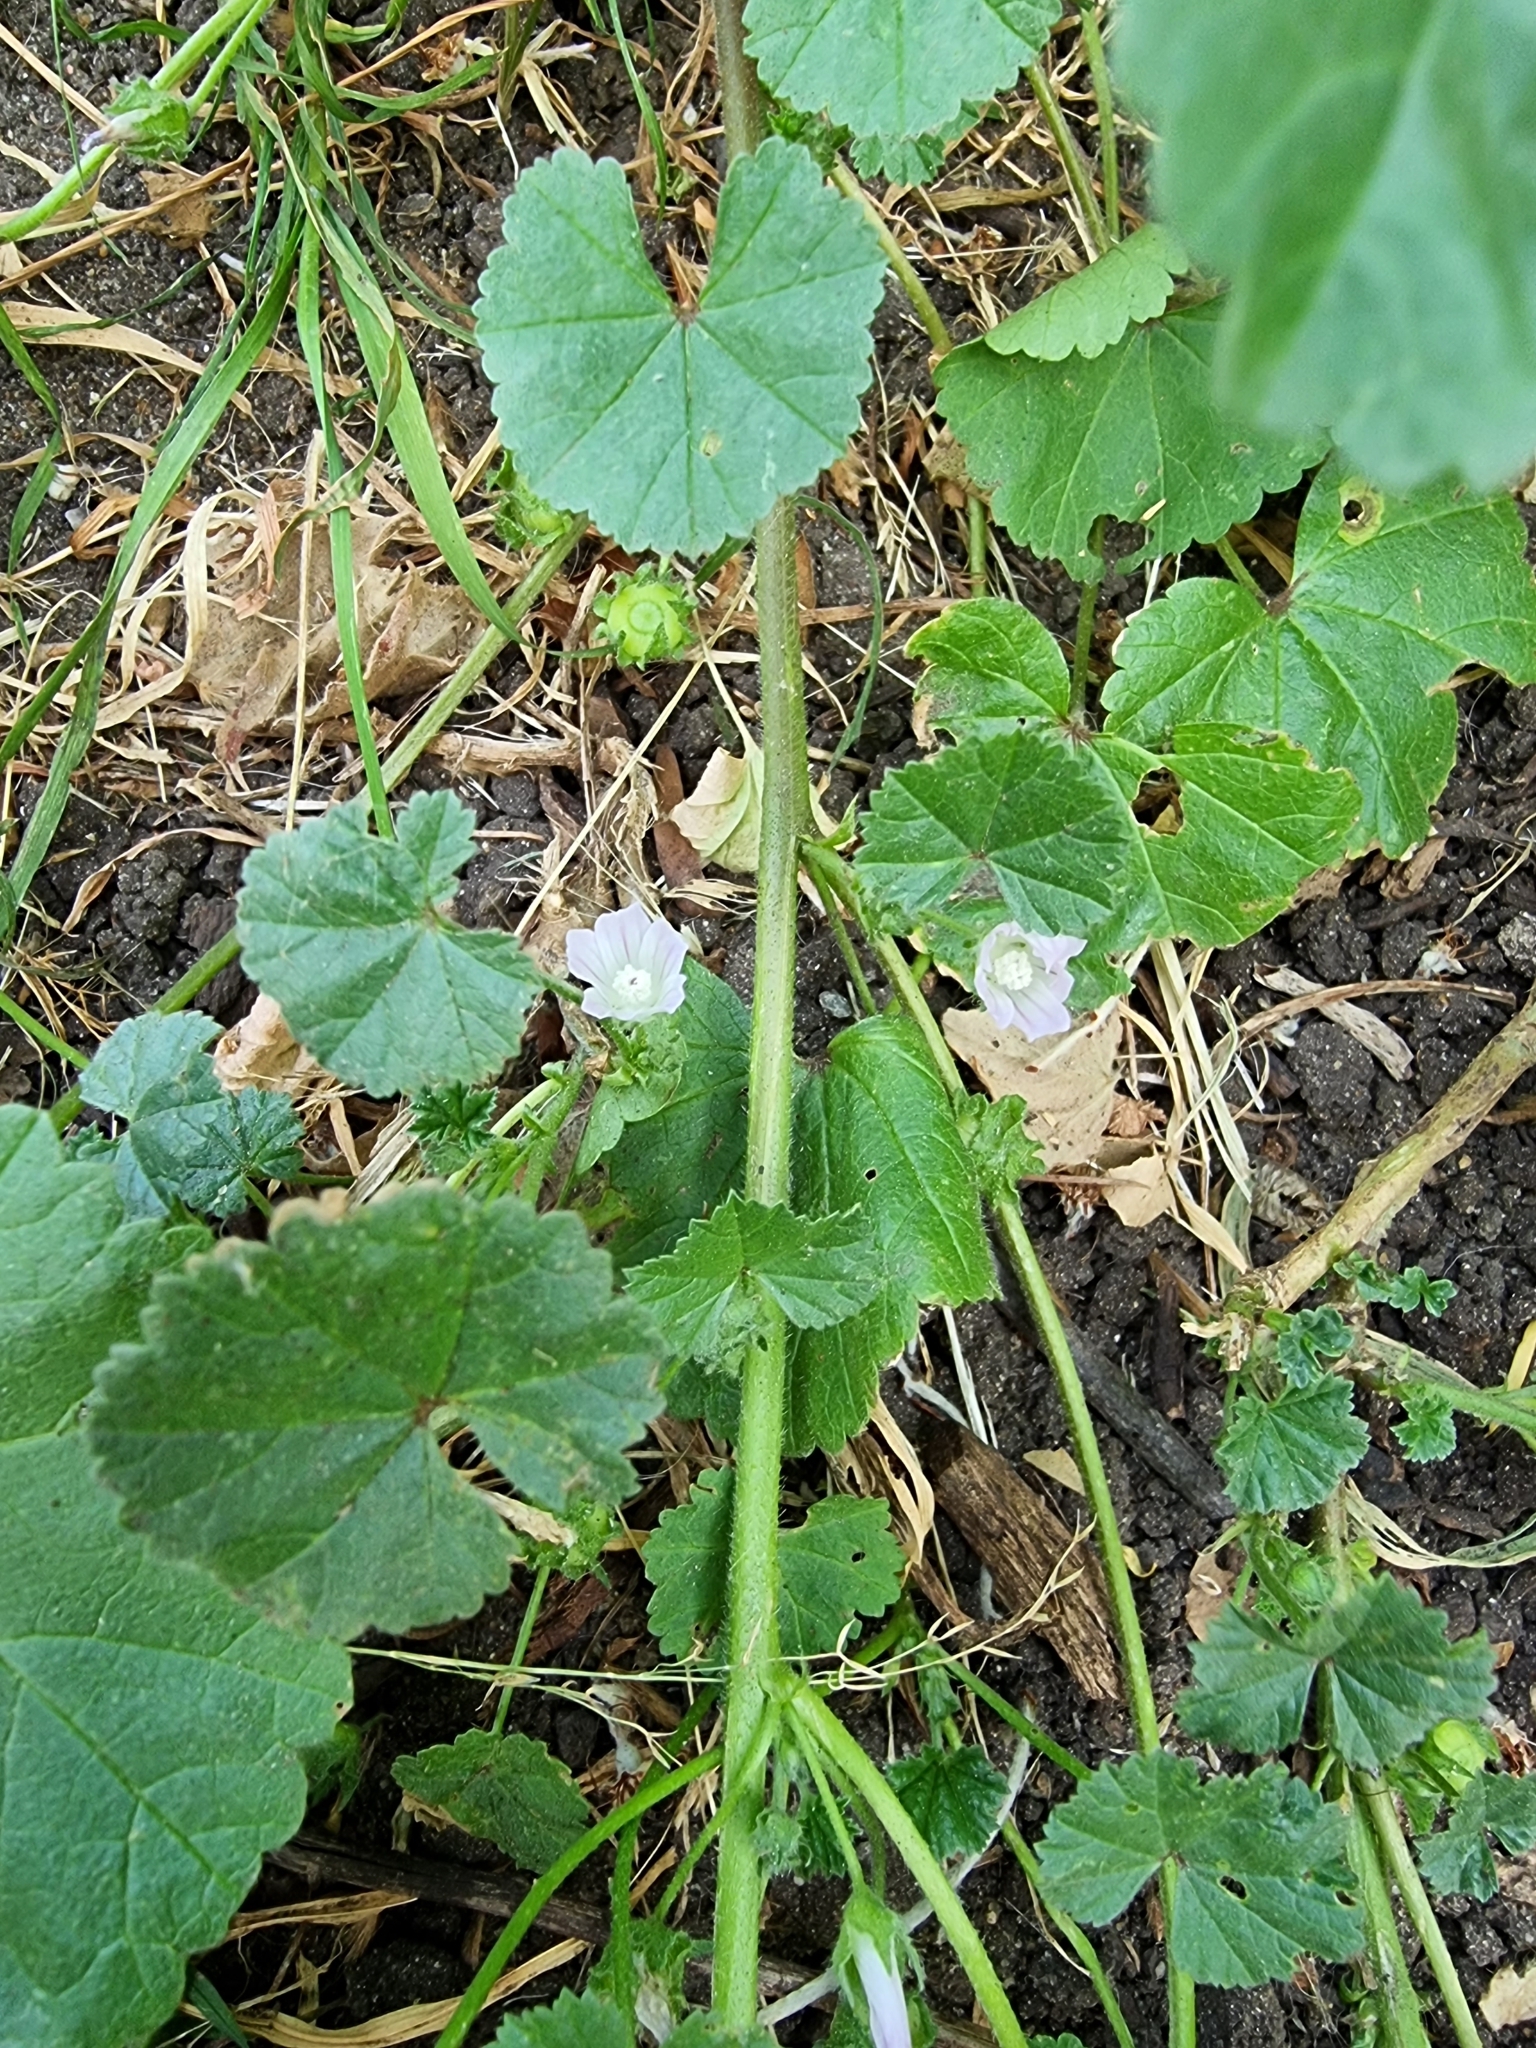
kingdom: Plantae
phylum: Tracheophyta
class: Magnoliopsida
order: Malvales
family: Malvaceae
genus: Malva
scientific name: Malva neglecta
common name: Common mallow
